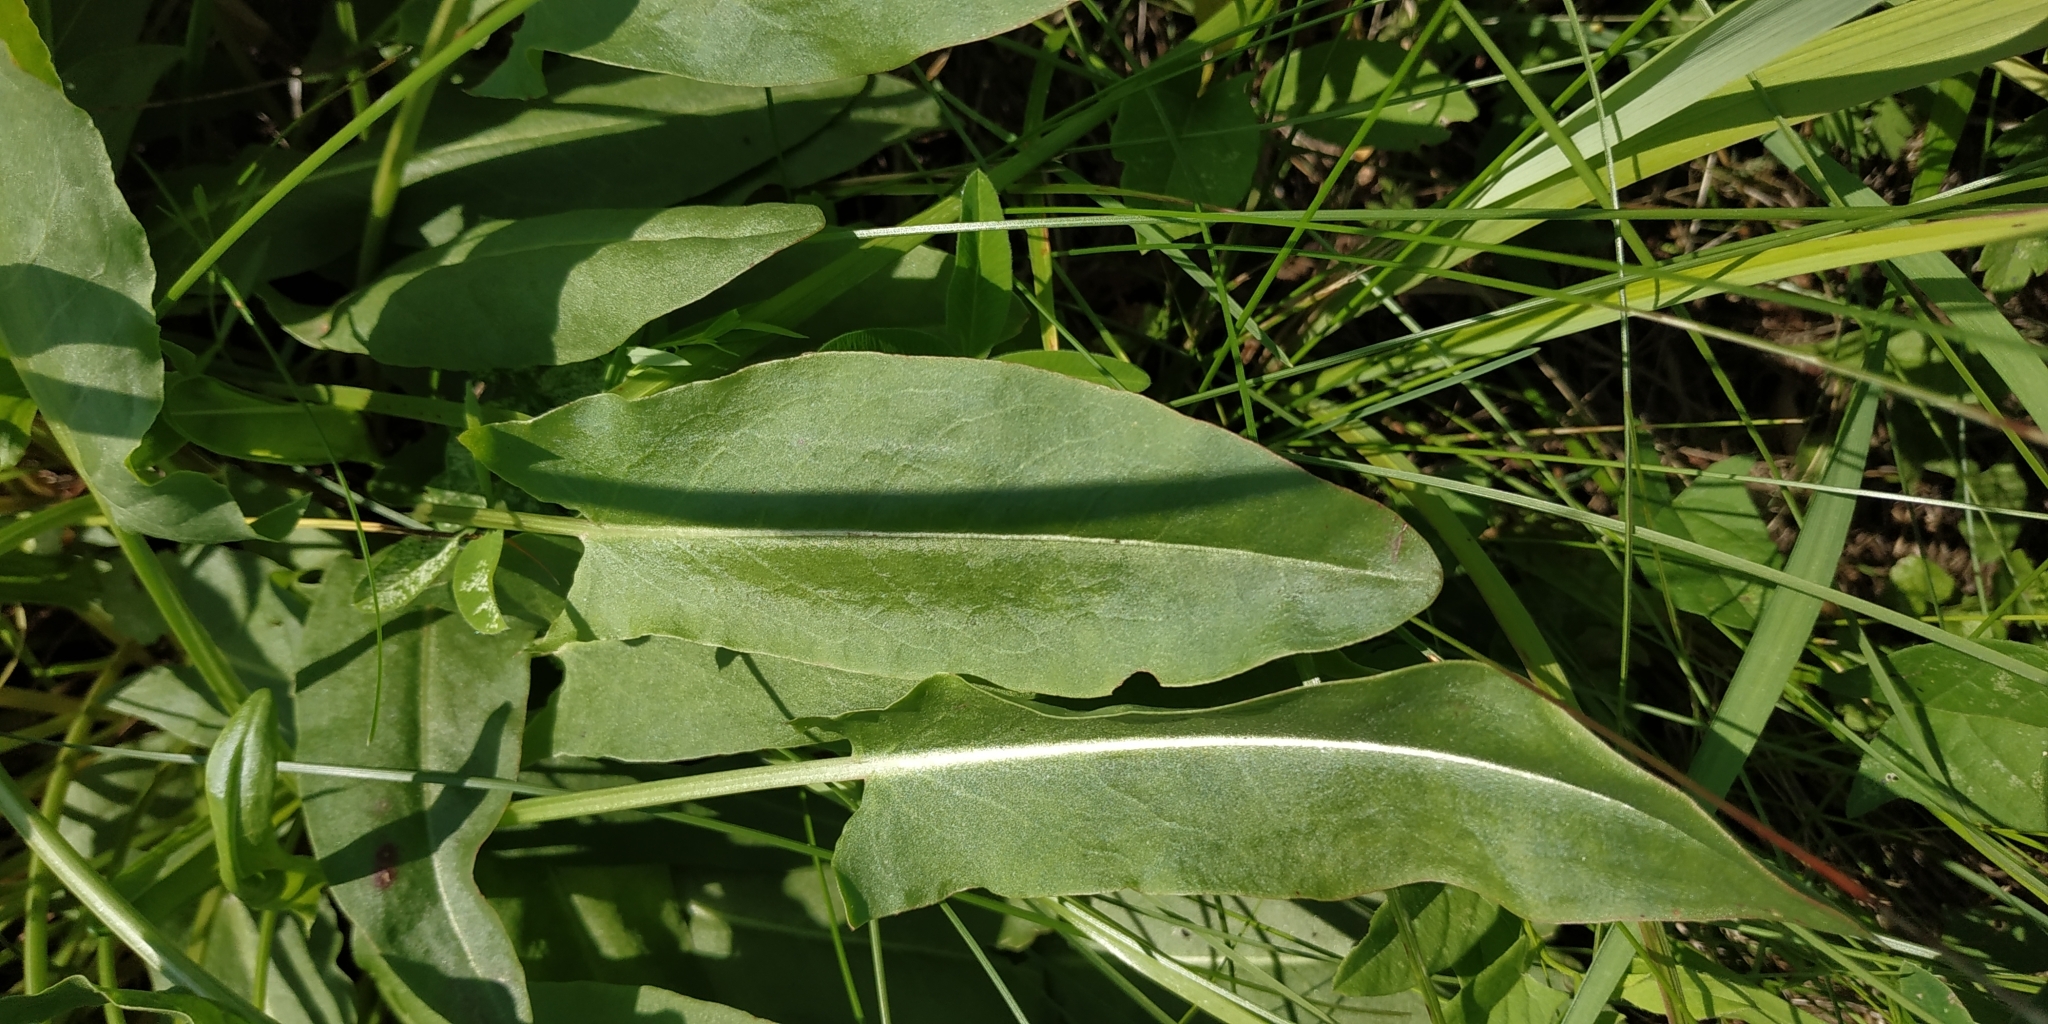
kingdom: Plantae
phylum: Tracheophyta
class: Magnoliopsida
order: Caryophyllales
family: Polygonaceae
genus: Rumex
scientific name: Rumex thyrsiflorus
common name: Garden sorrel
